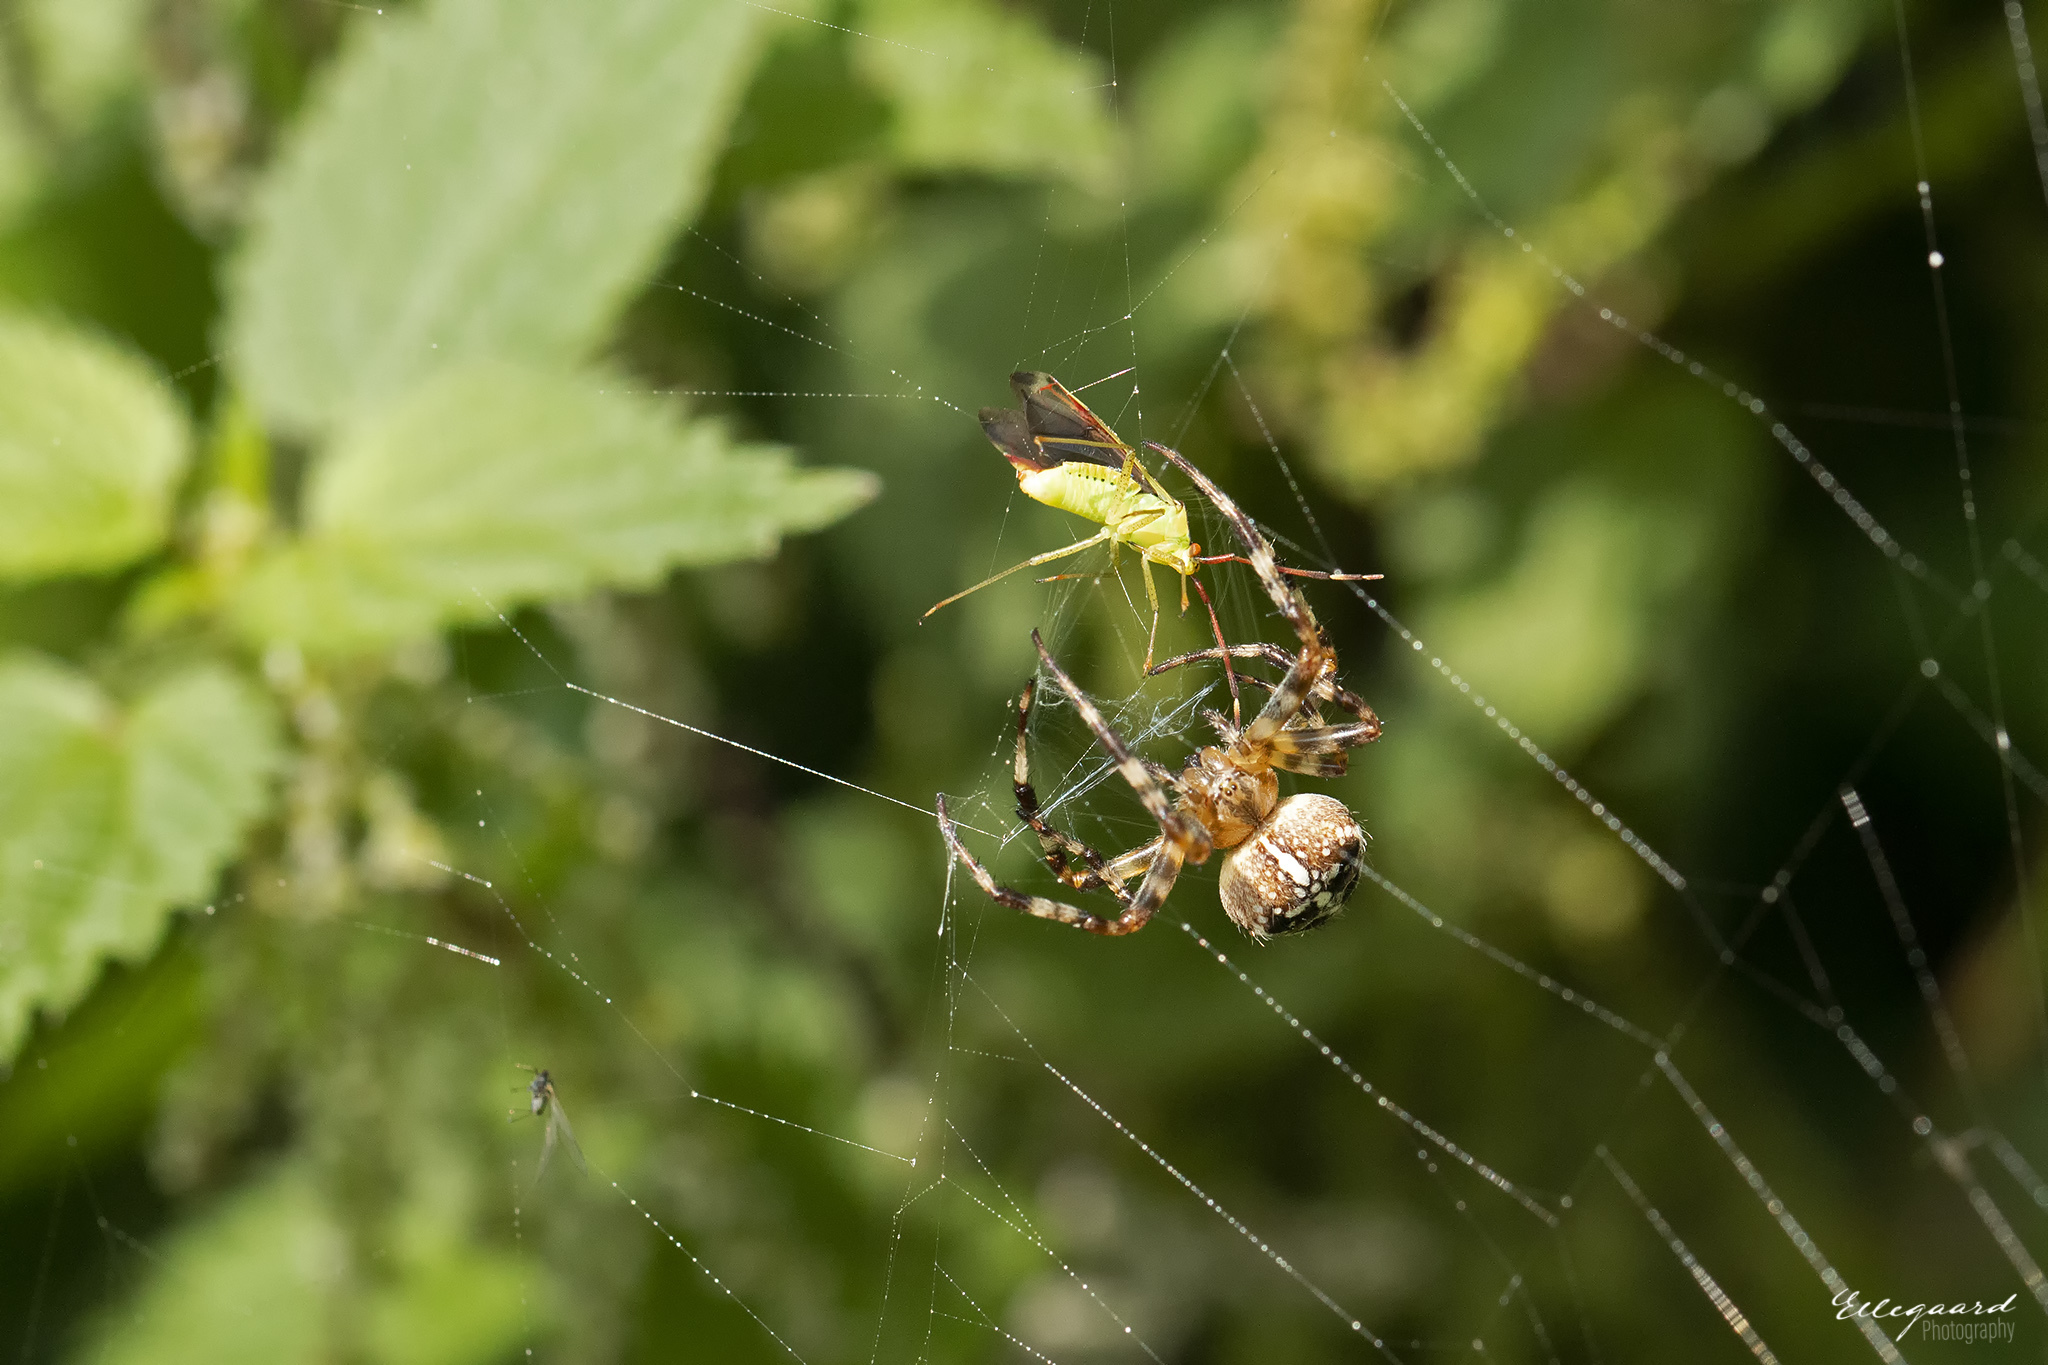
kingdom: Animalia
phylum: Arthropoda
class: Arachnida
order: Araneae
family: Araneidae
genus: Araneus
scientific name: Araneus diadematus
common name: Cross orbweaver
